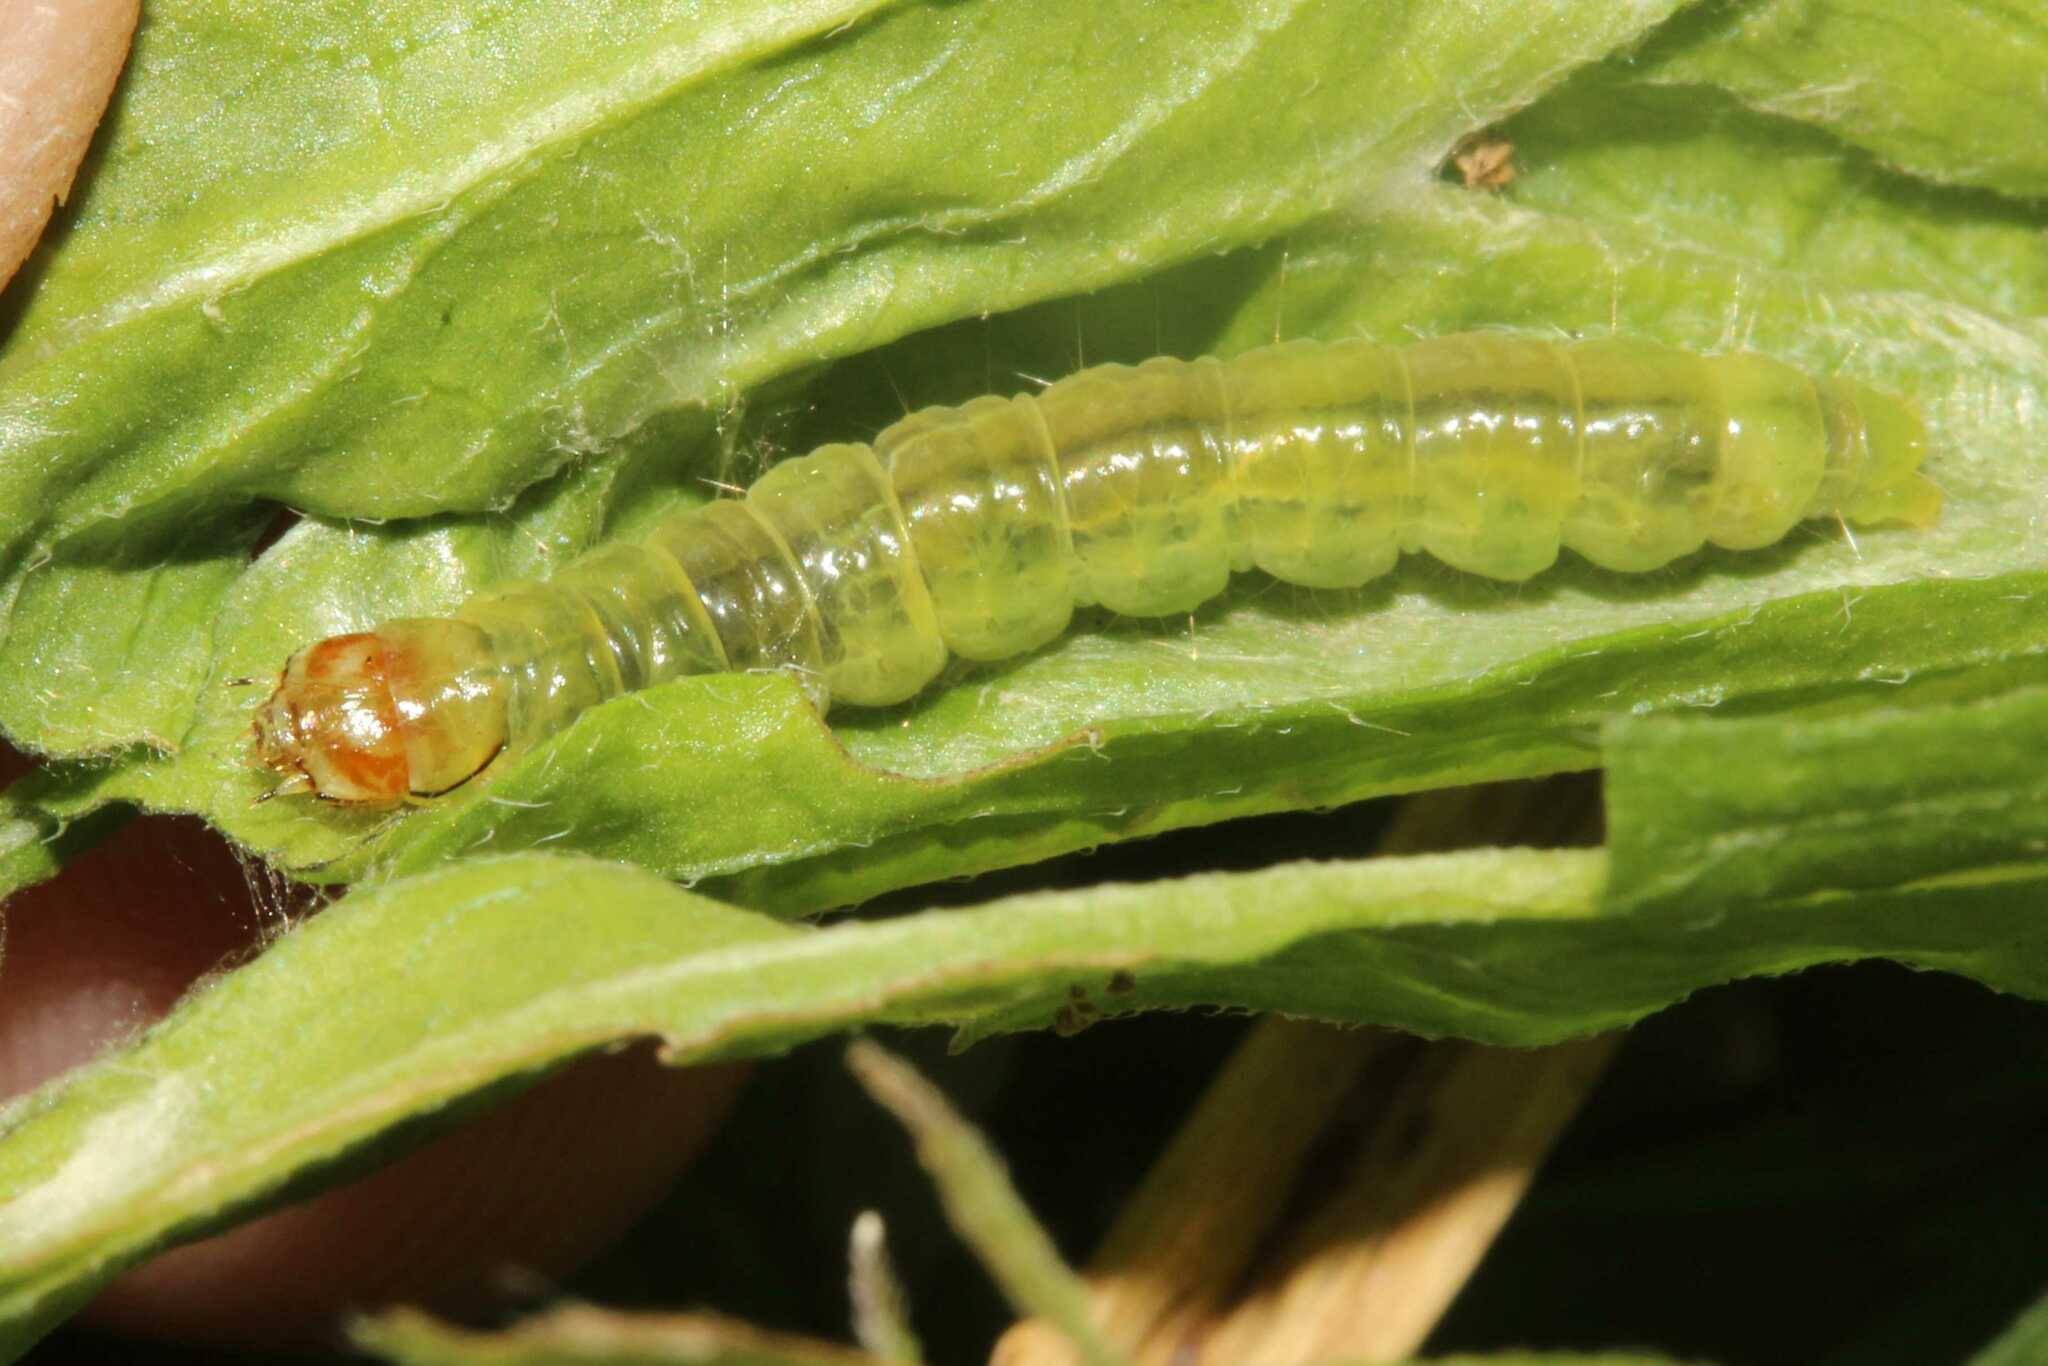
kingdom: Animalia
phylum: Arthropoda
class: Insecta
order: Lepidoptera
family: Tortricidae
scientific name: Tortricidae
